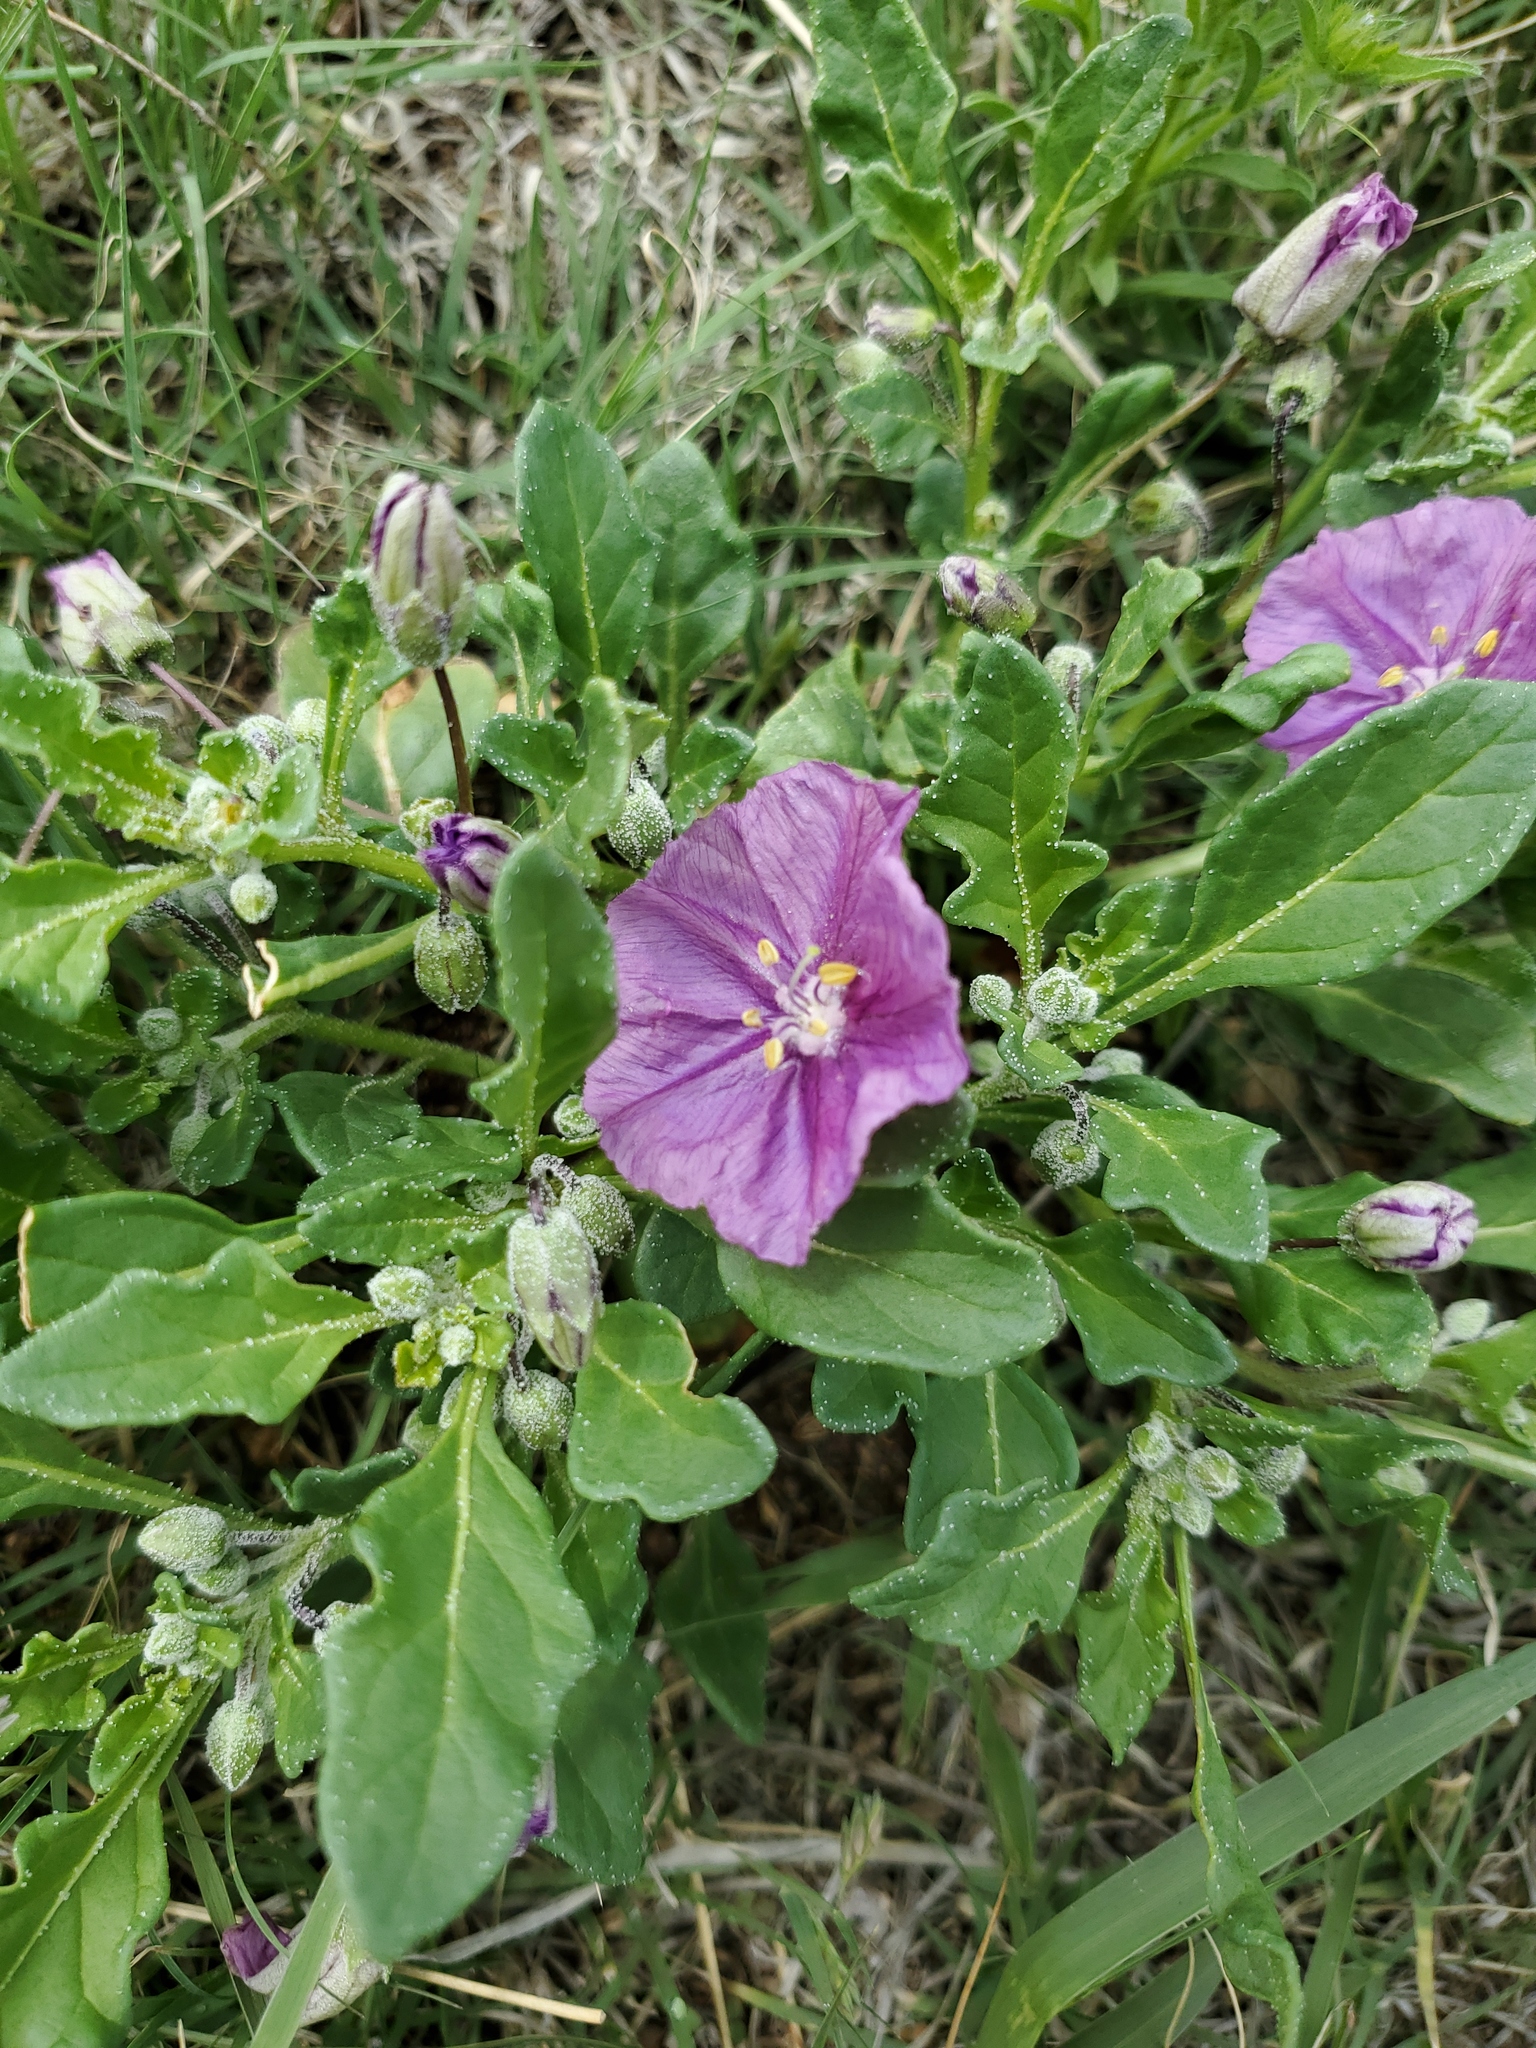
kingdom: Plantae
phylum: Tracheophyta
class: Magnoliopsida
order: Solanales
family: Solanaceae
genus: Quincula
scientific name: Quincula lobata
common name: Purple-ground-cherry
